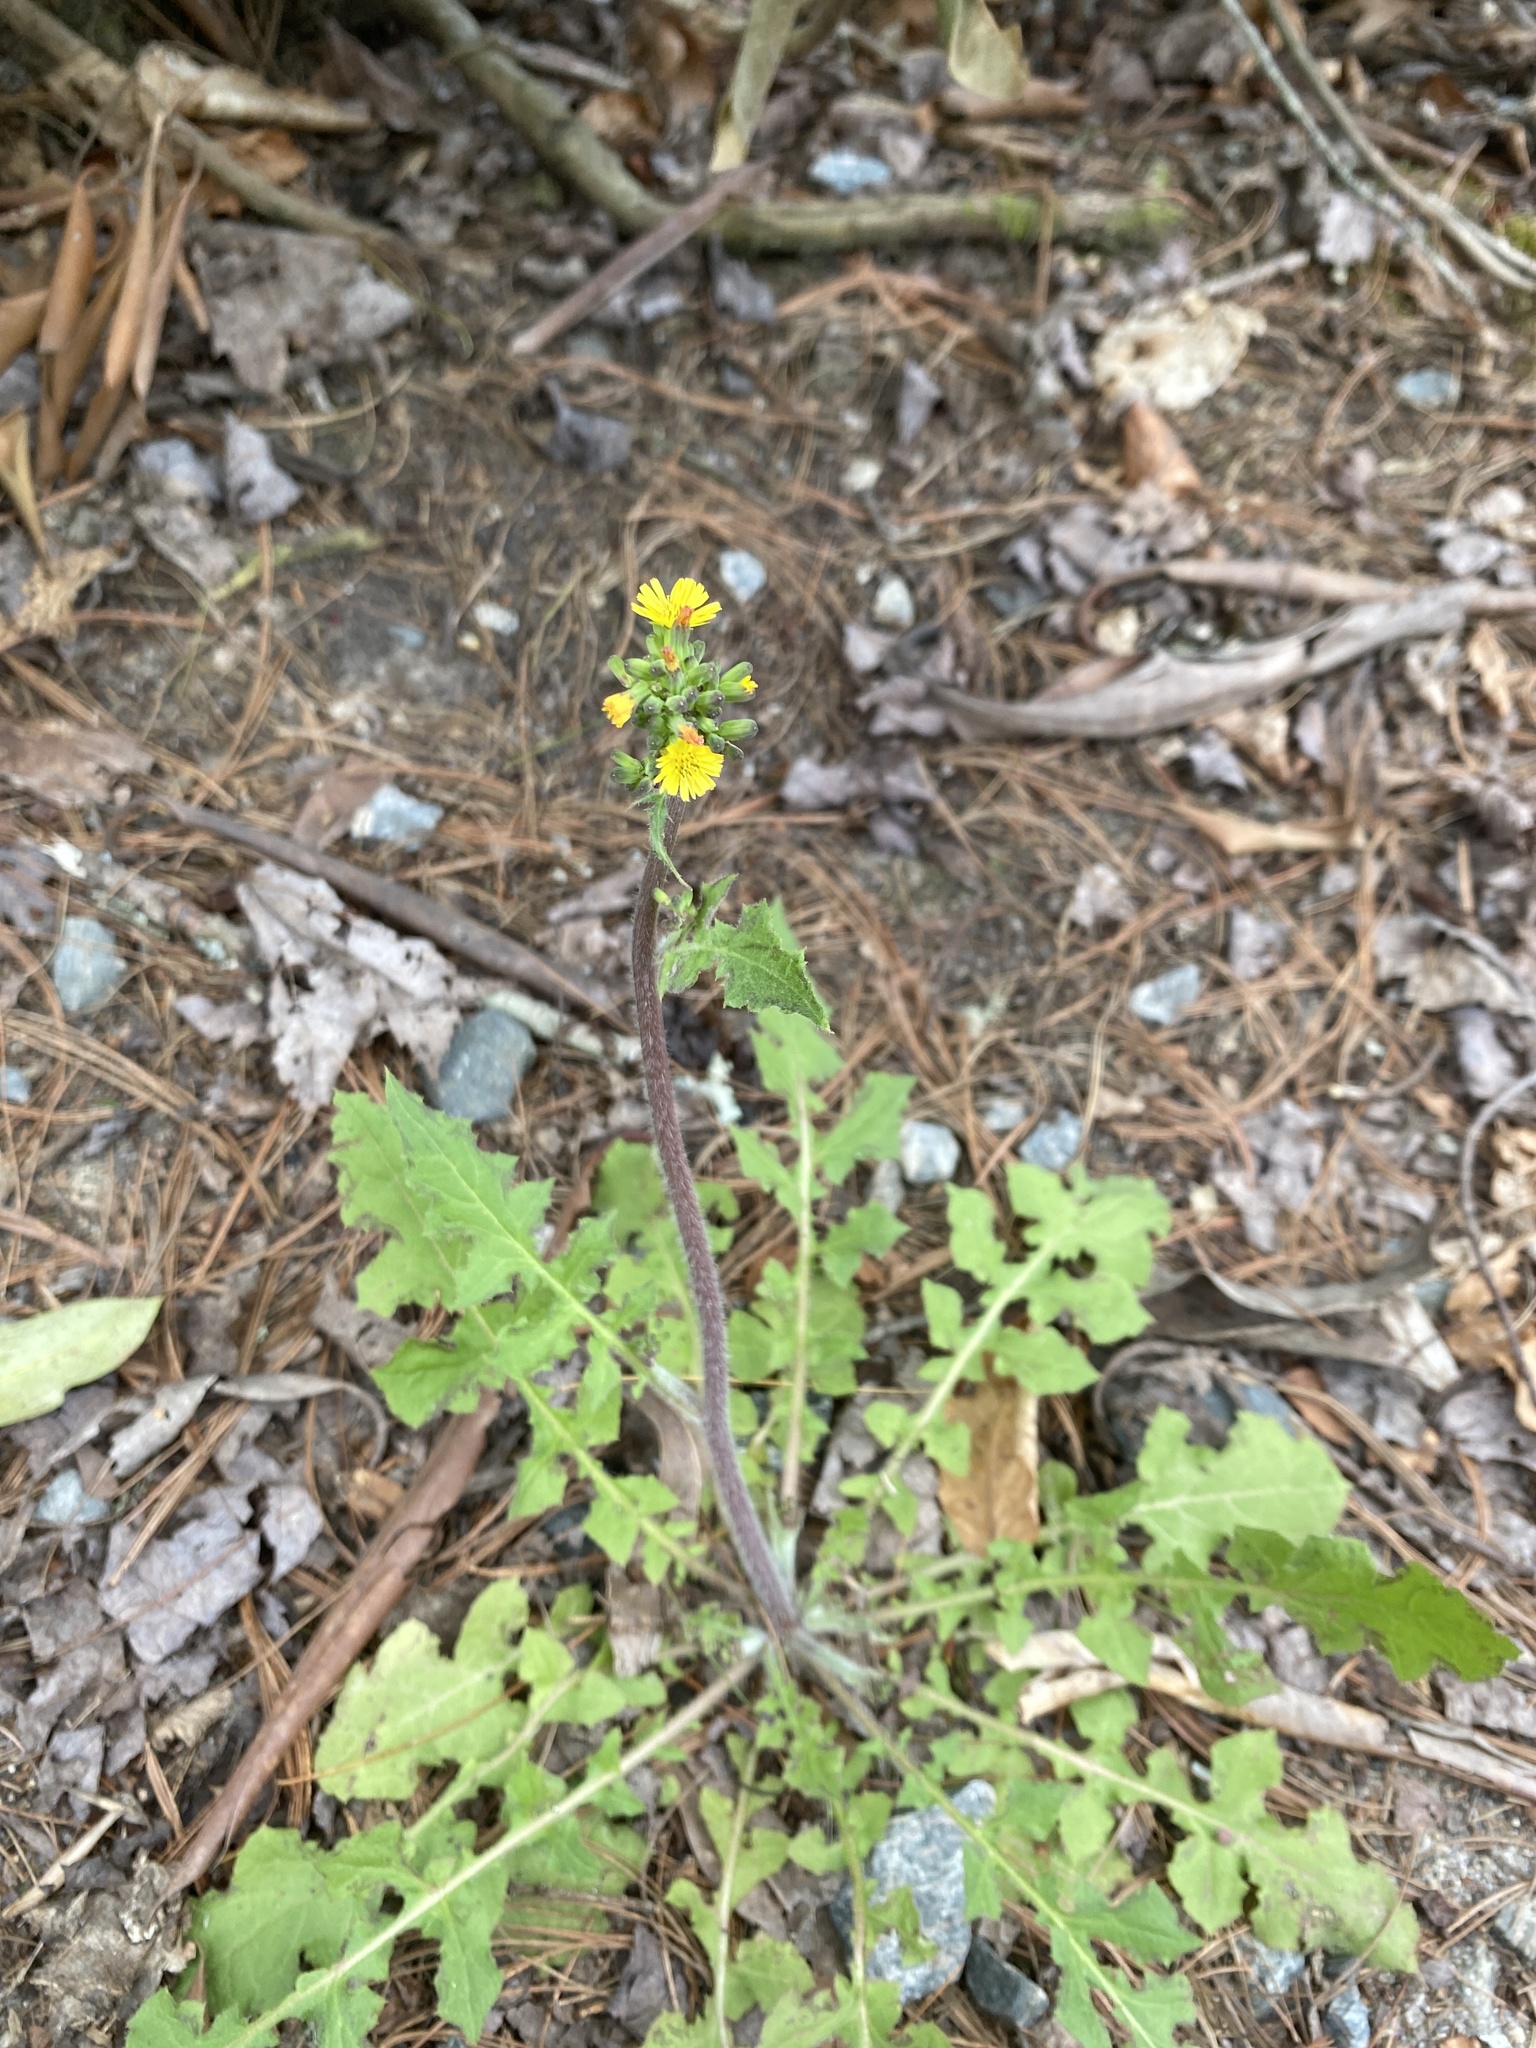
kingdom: Plantae
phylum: Tracheophyta
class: Magnoliopsida
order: Asterales
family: Asteraceae
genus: Youngia
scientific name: Youngia japonica
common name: Oriental false hawksbeard
